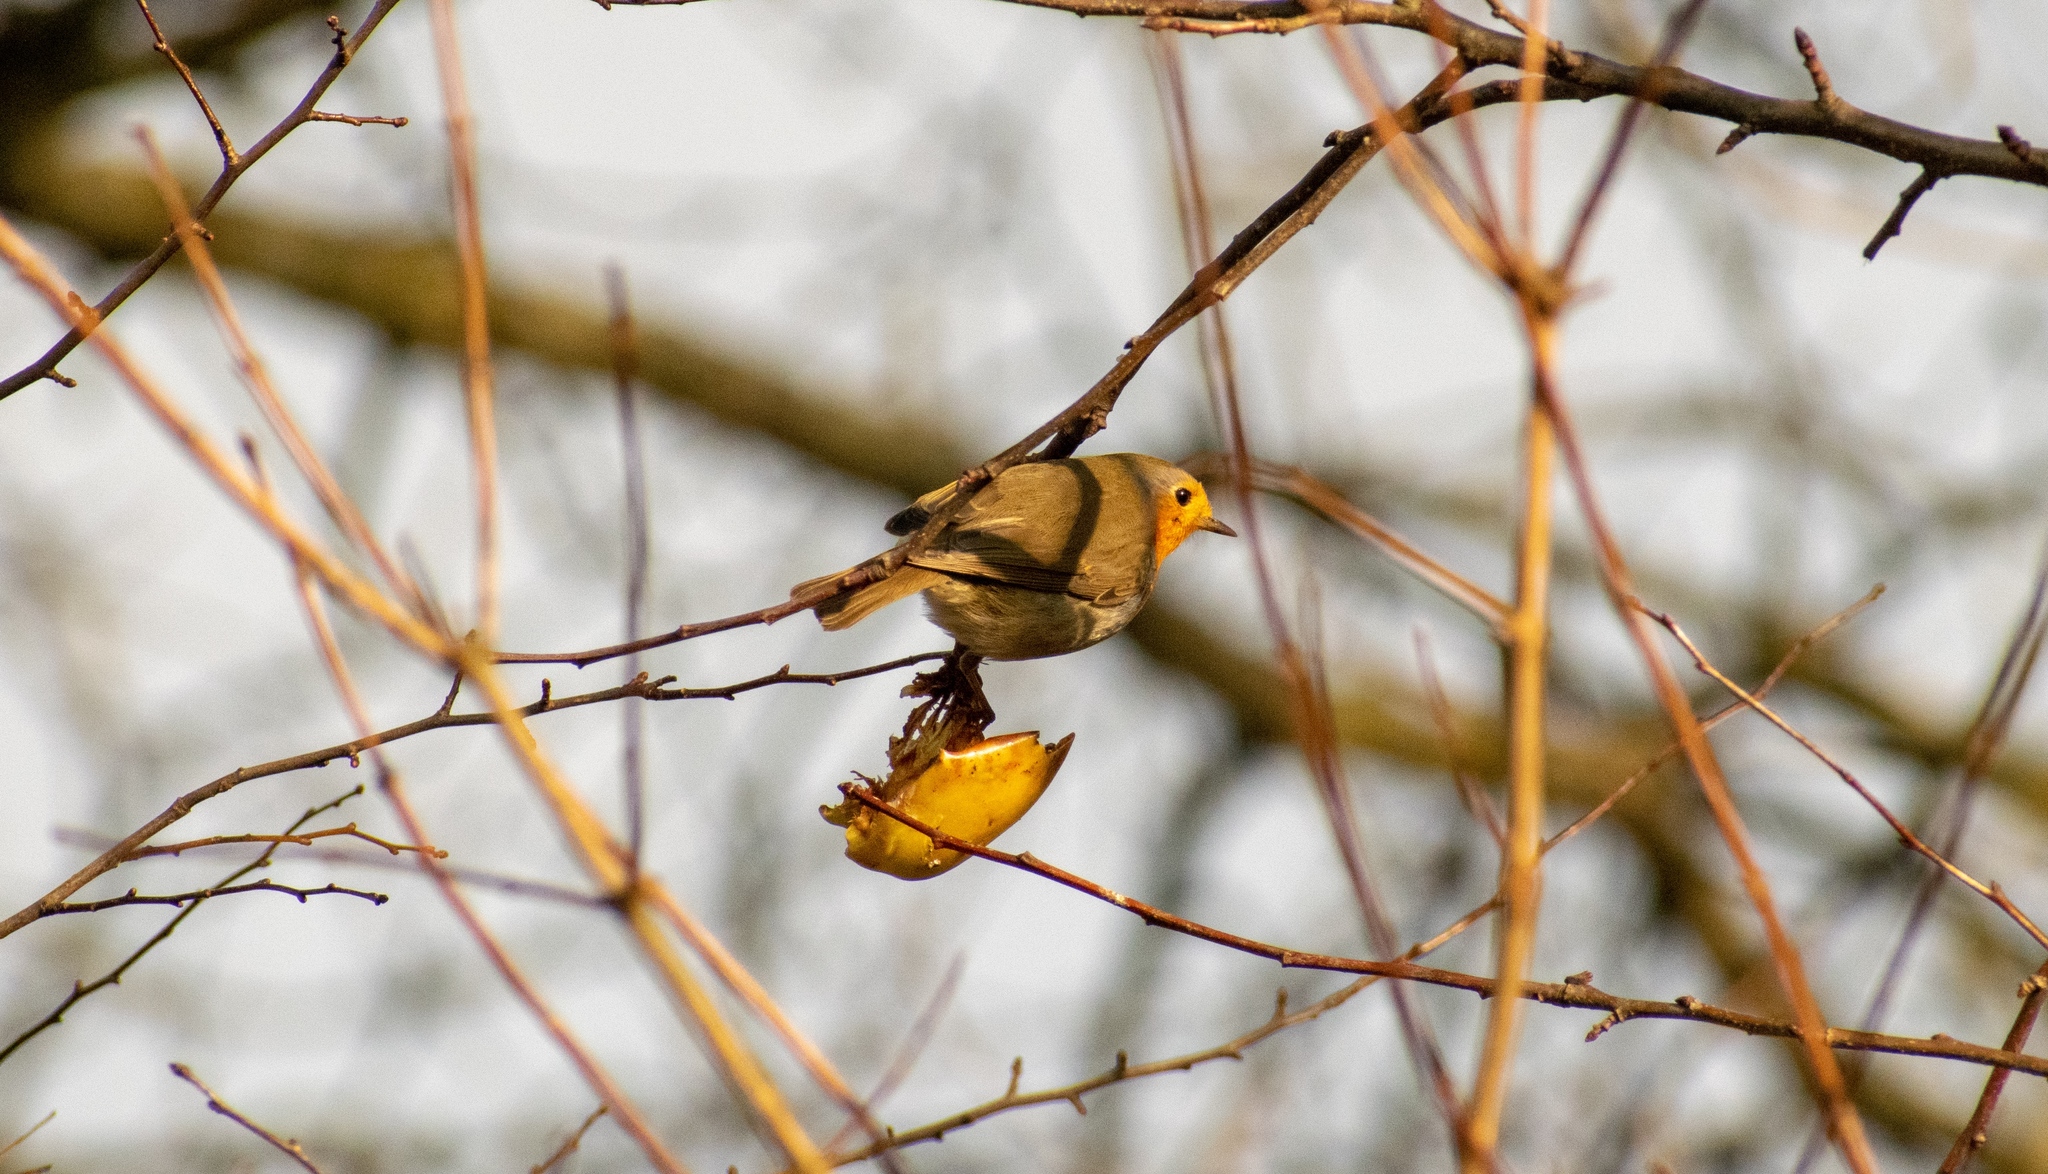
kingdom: Animalia
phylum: Chordata
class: Aves
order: Passeriformes
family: Muscicapidae
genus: Erithacus
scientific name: Erithacus rubecula
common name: European robin
